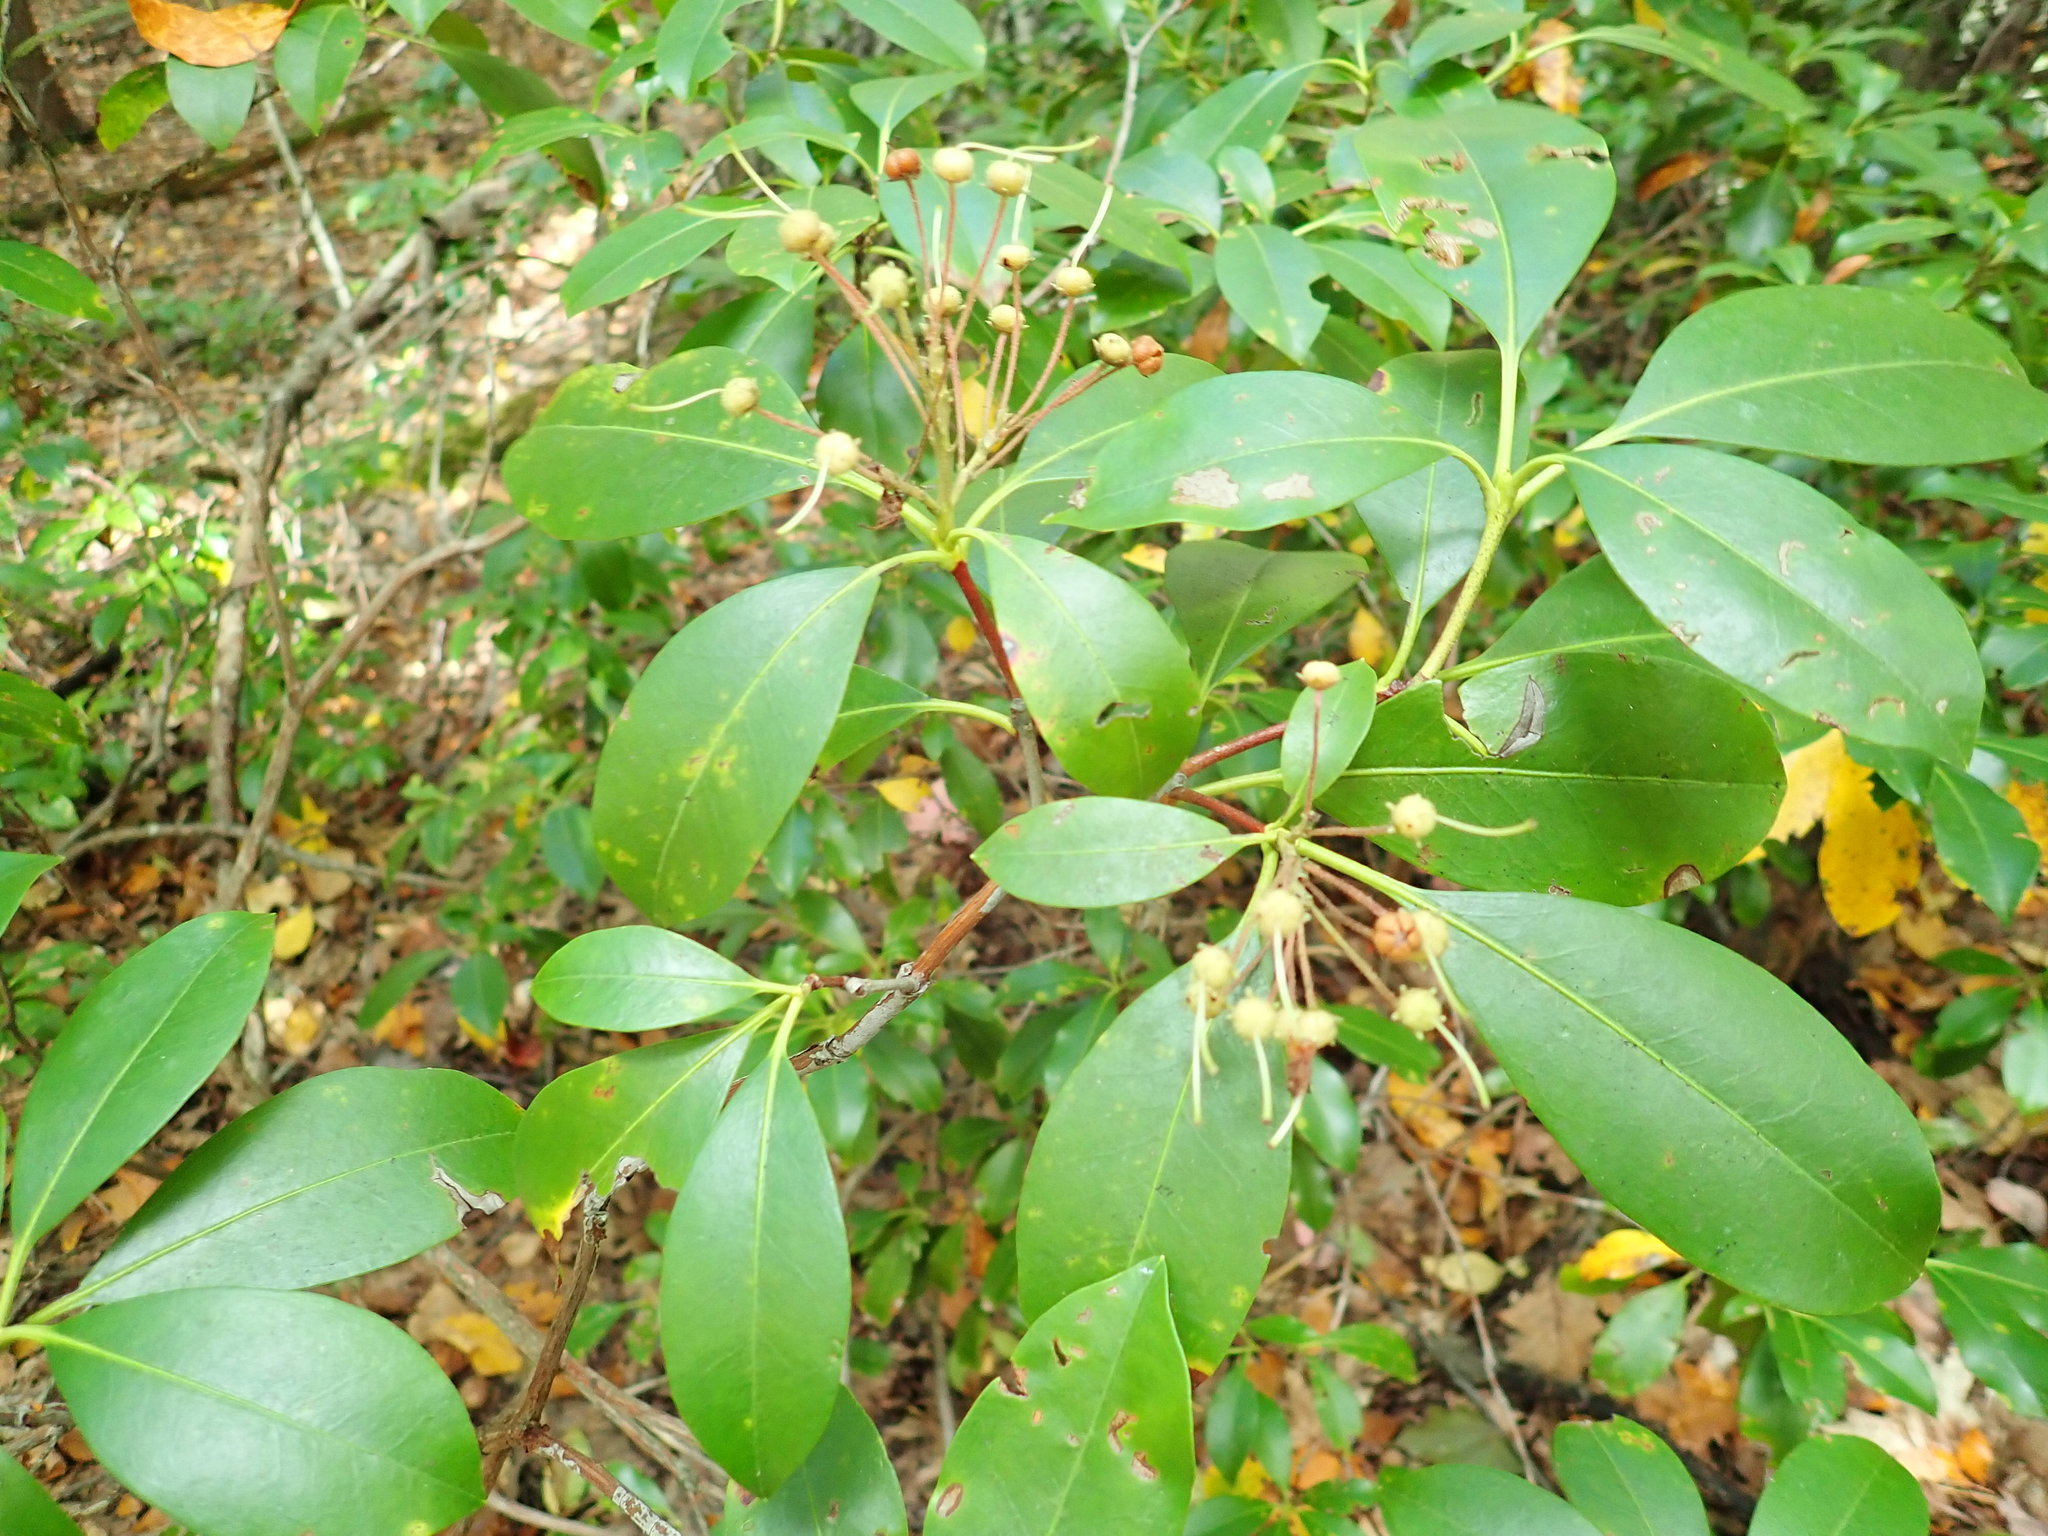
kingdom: Plantae
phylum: Tracheophyta
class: Magnoliopsida
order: Ericales
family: Ericaceae
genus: Kalmia
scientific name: Kalmia latifolia
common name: Mountain-laurel
